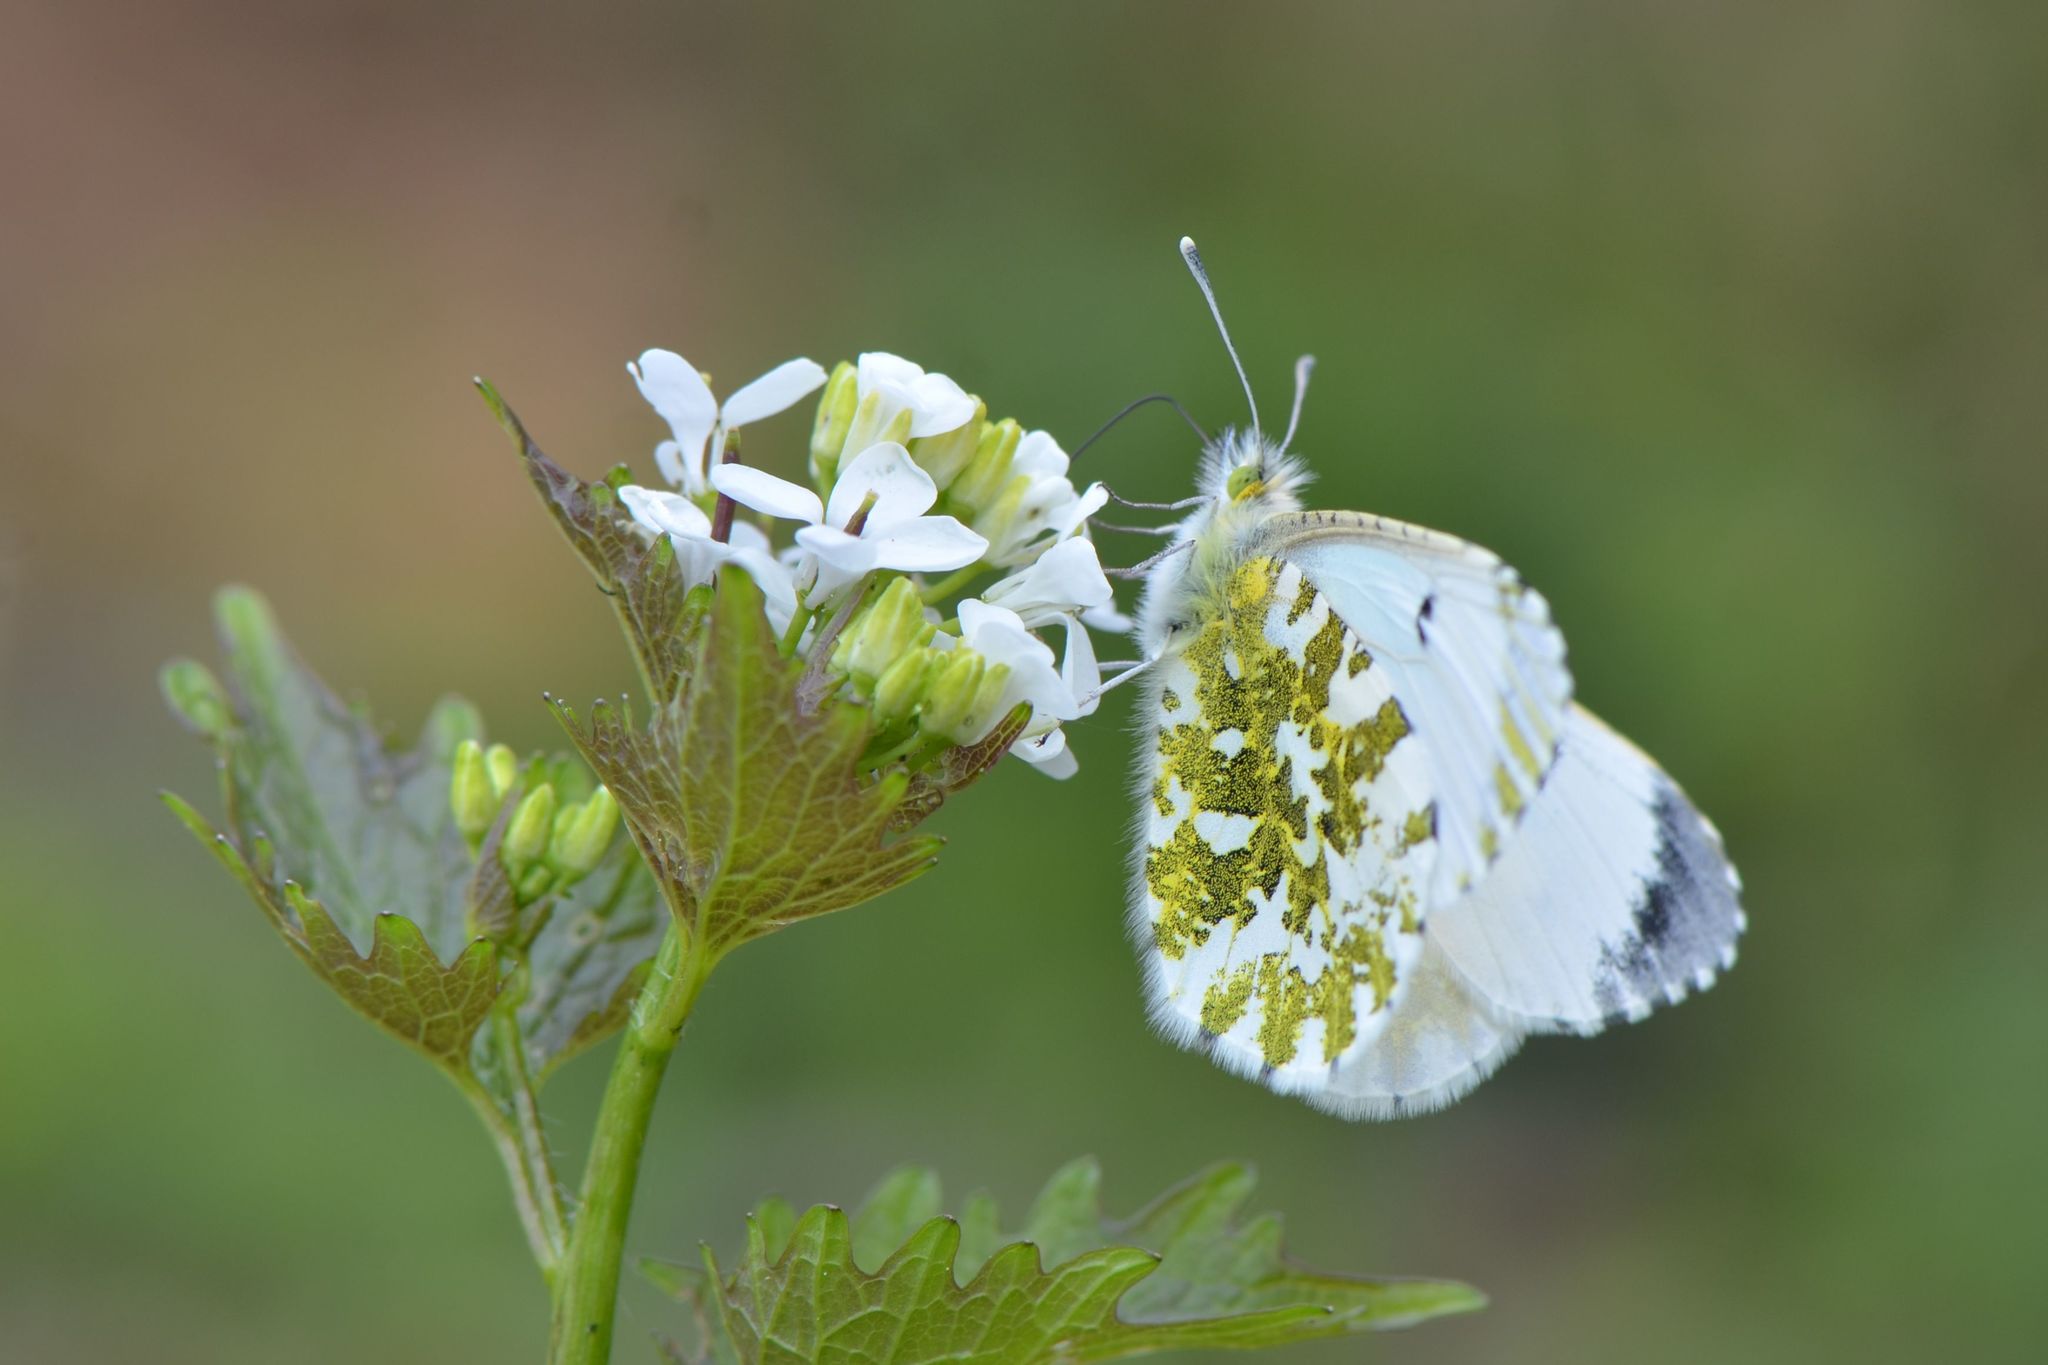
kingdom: Animalia
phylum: Arthropoda
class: Insecta
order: Lepidoptera
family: Pieridae
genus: Anthocharis
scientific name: Anthocharis cardamines
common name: Orange-tip
